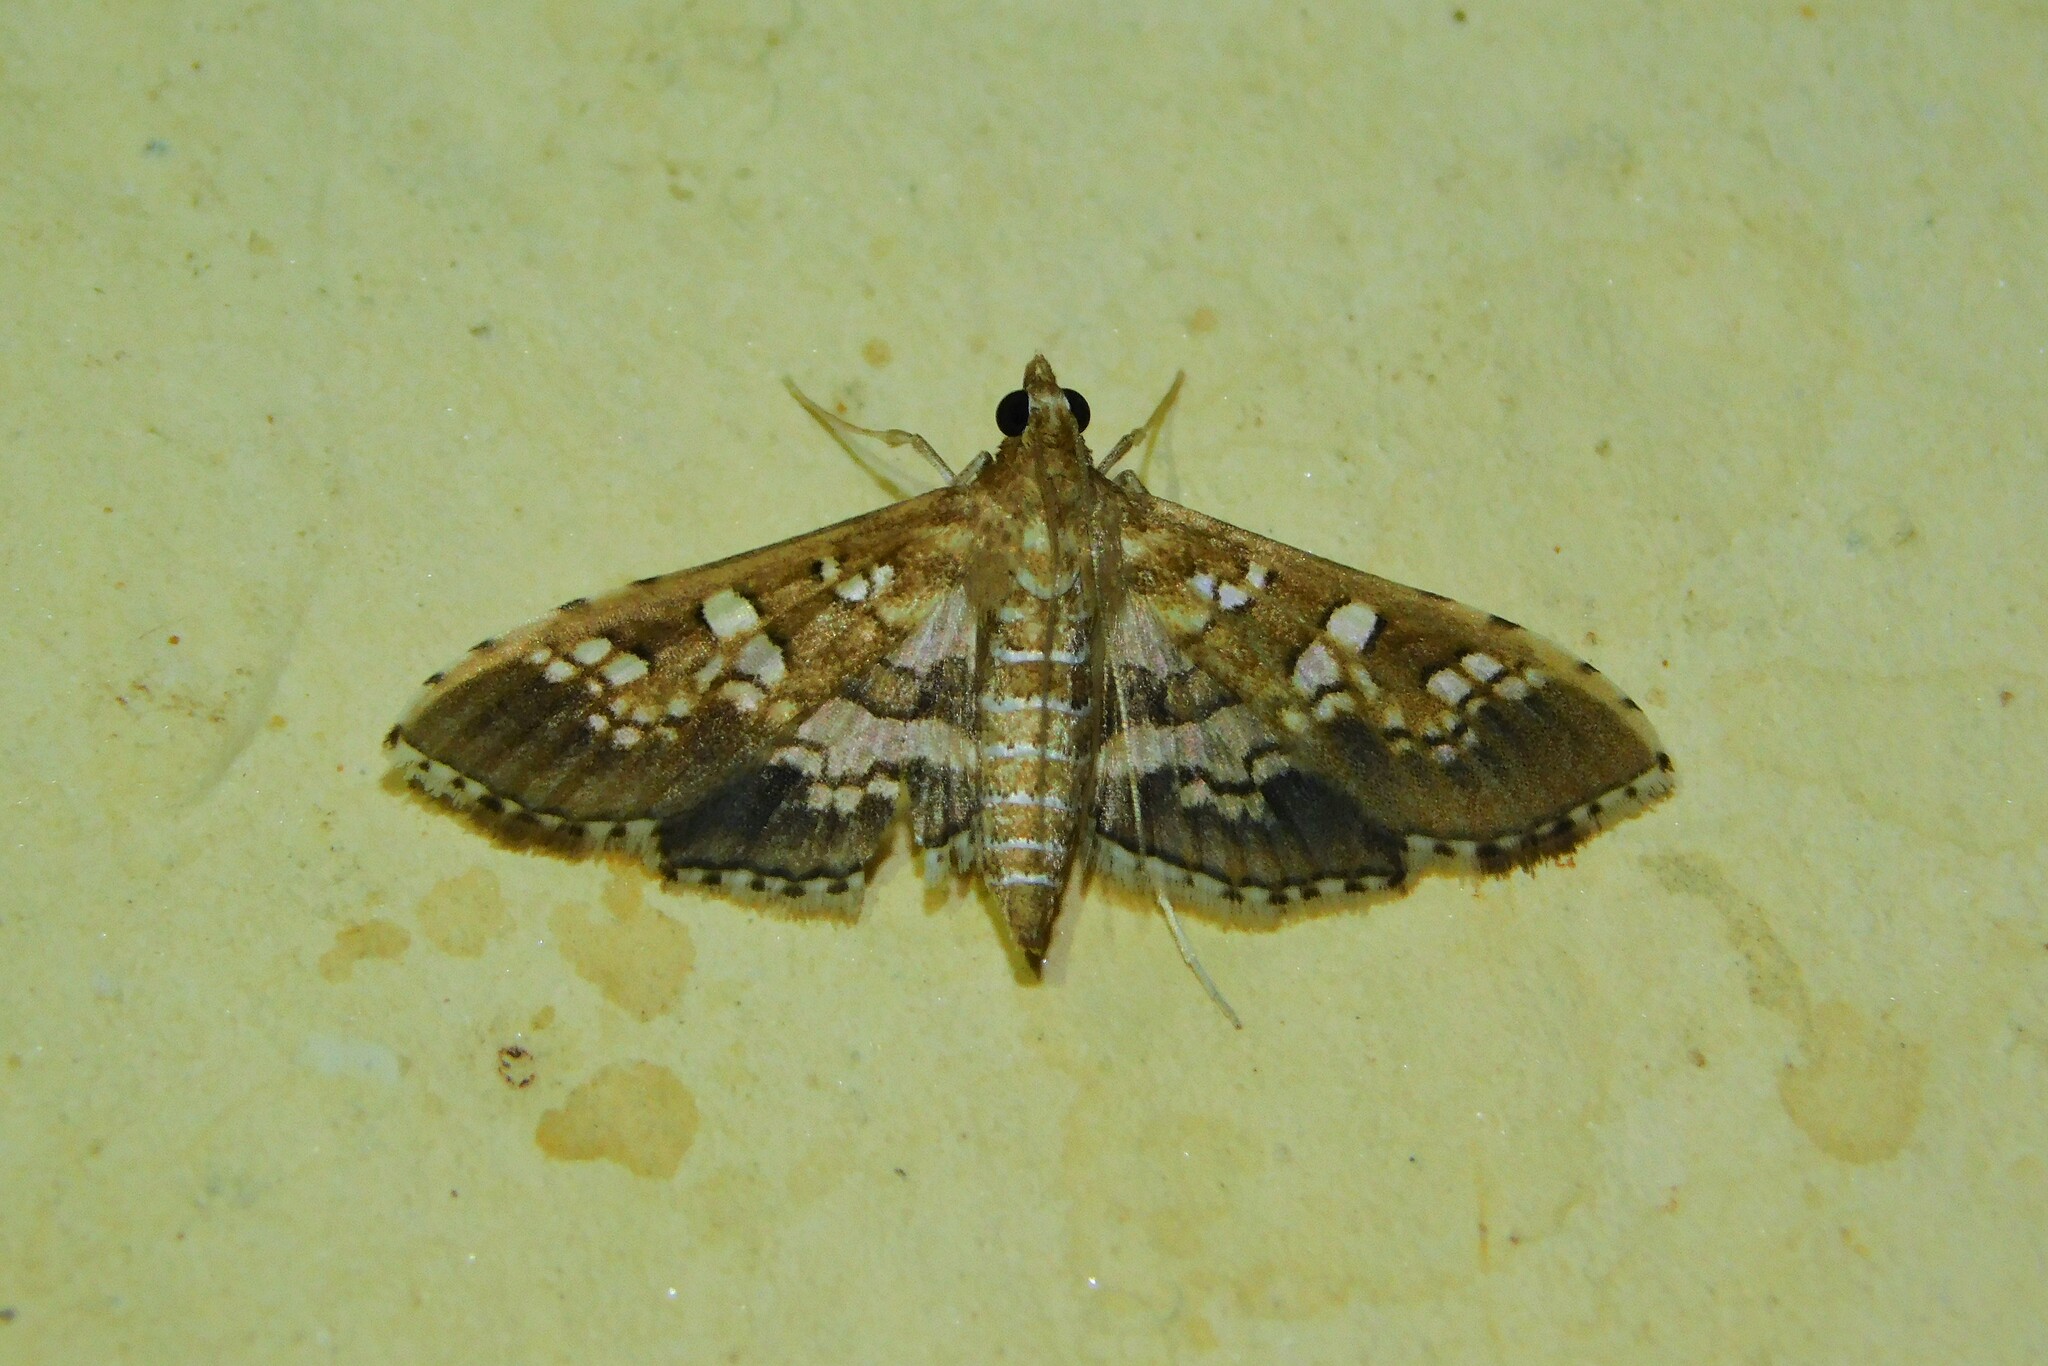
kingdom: Animalia
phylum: Arthropoda
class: Insecta
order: Lepidoptera
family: Crambidae
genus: Sameodes
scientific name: Sameodes cancellalis
